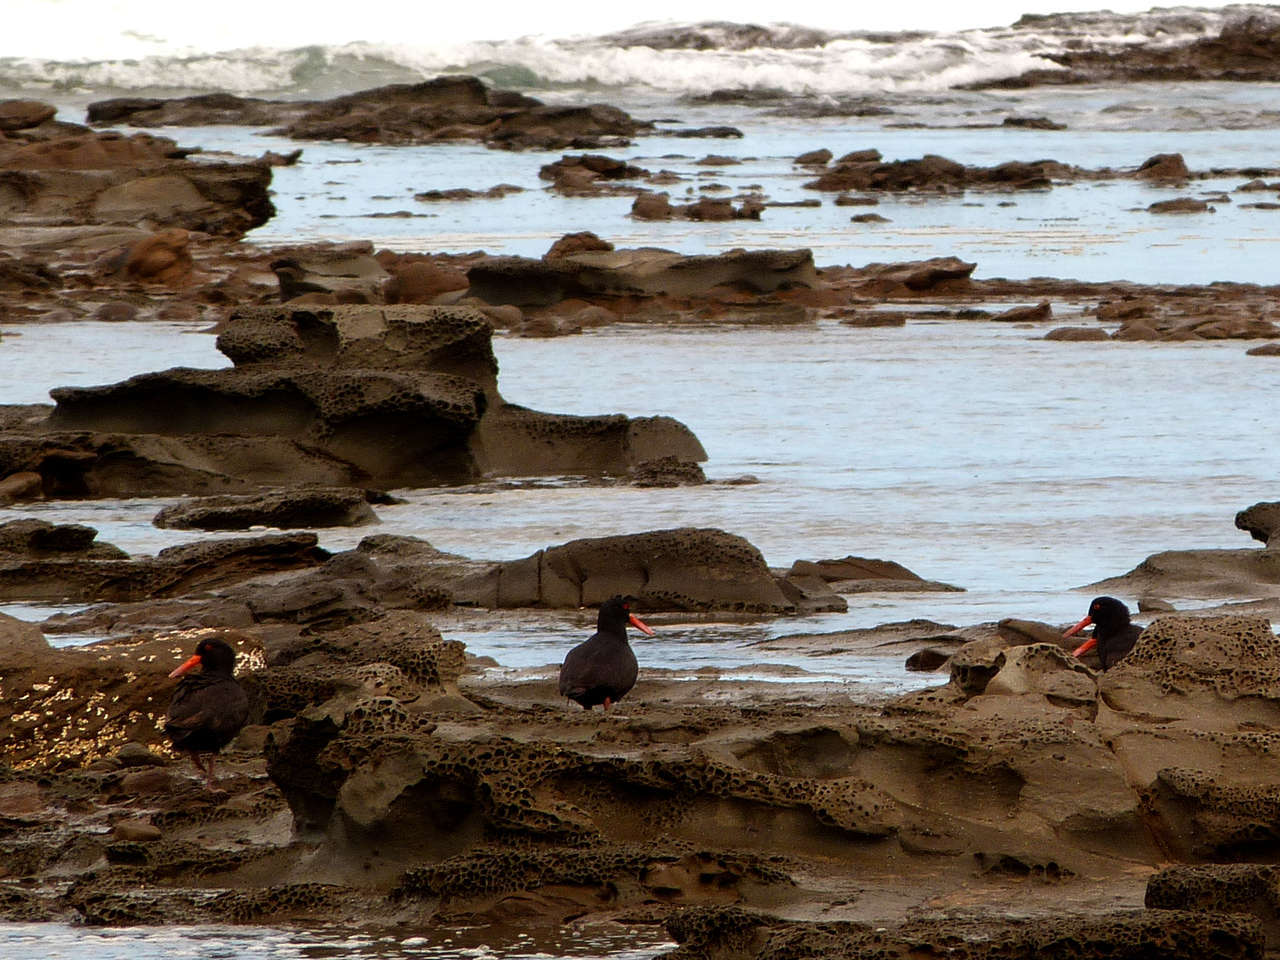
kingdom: Animalia
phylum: Chordata
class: Aves
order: Charadriiformes
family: Haematopodidae
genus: Haematopus
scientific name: Haematopus fuliginosus
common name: Sooty oystercatcher
